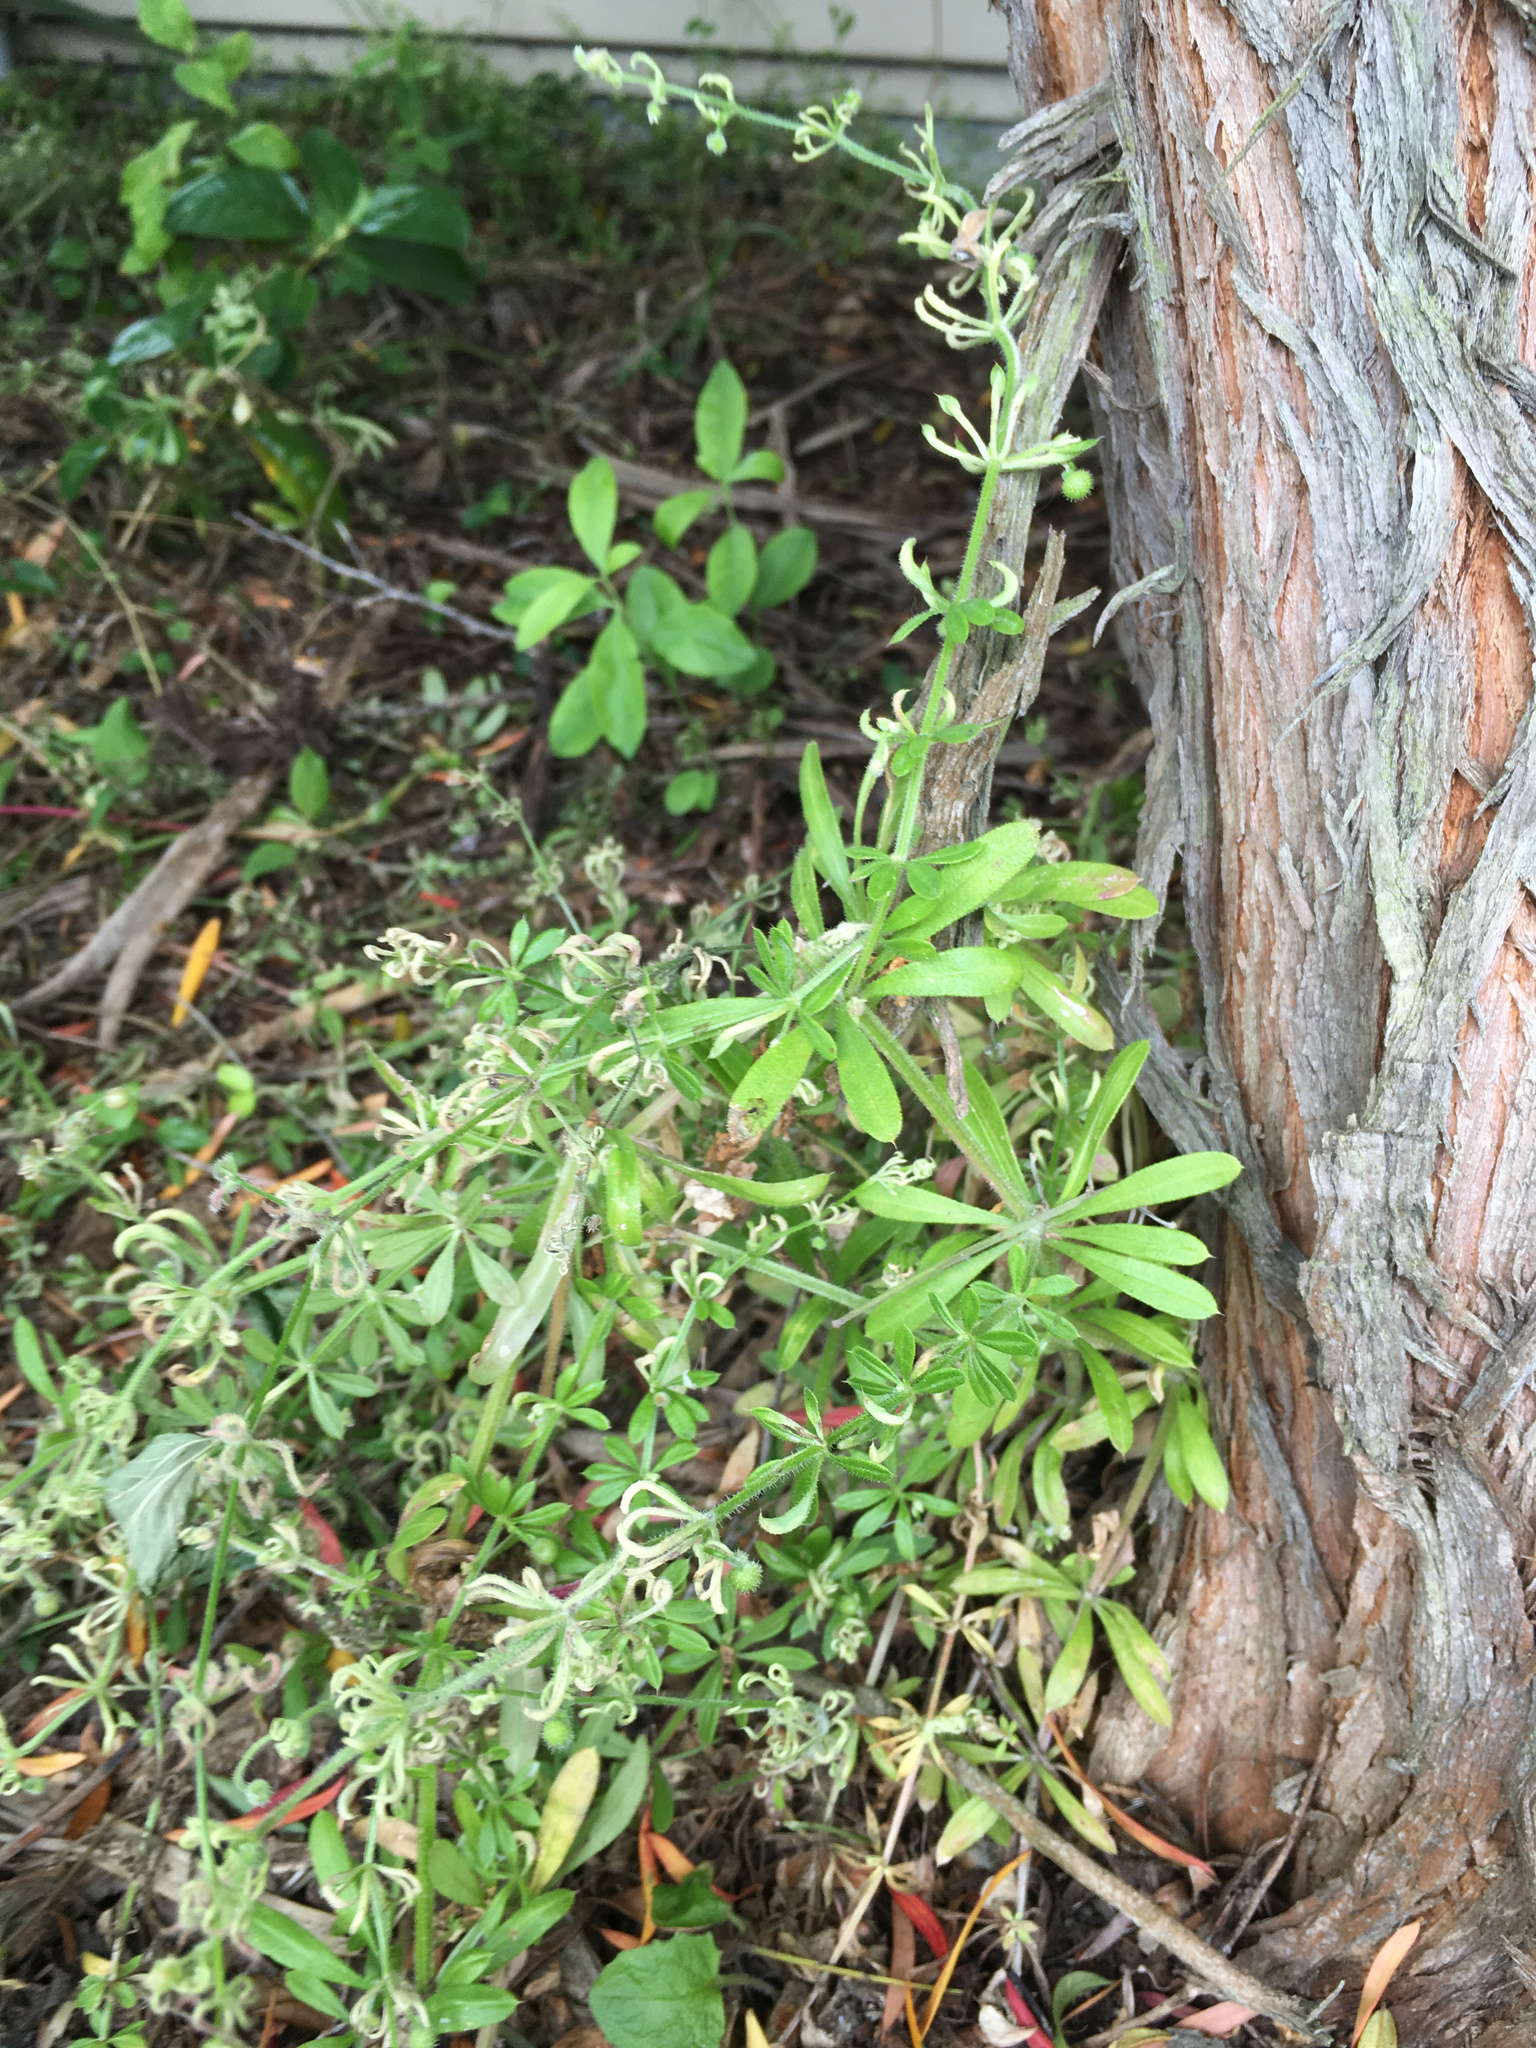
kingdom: Animalia
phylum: Arthropoda
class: Arachnida
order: Trombidiformes
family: Eriophyidae
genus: Cecidophyes
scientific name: Cecidophyes rouhollahi
